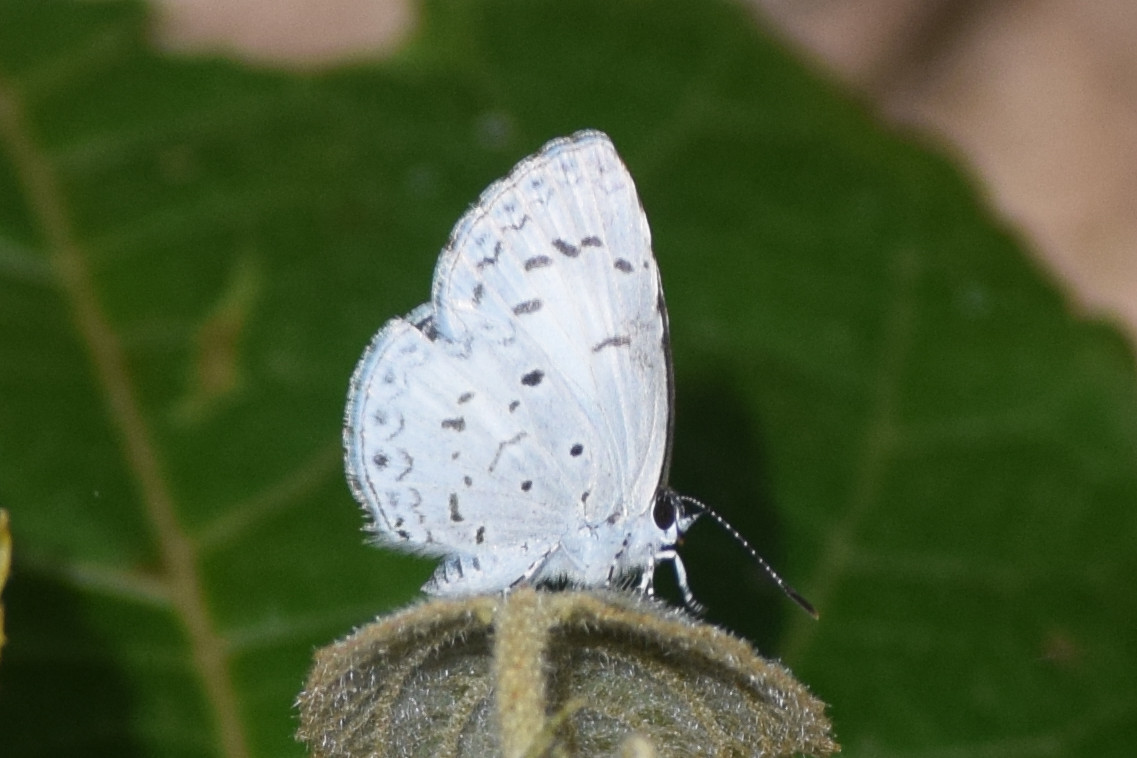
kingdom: Animalia
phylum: Arthropoda
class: Insecta
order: Lepidoptera
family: Lycaenidae
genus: Acytolepis
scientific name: Acytolepis puspa
